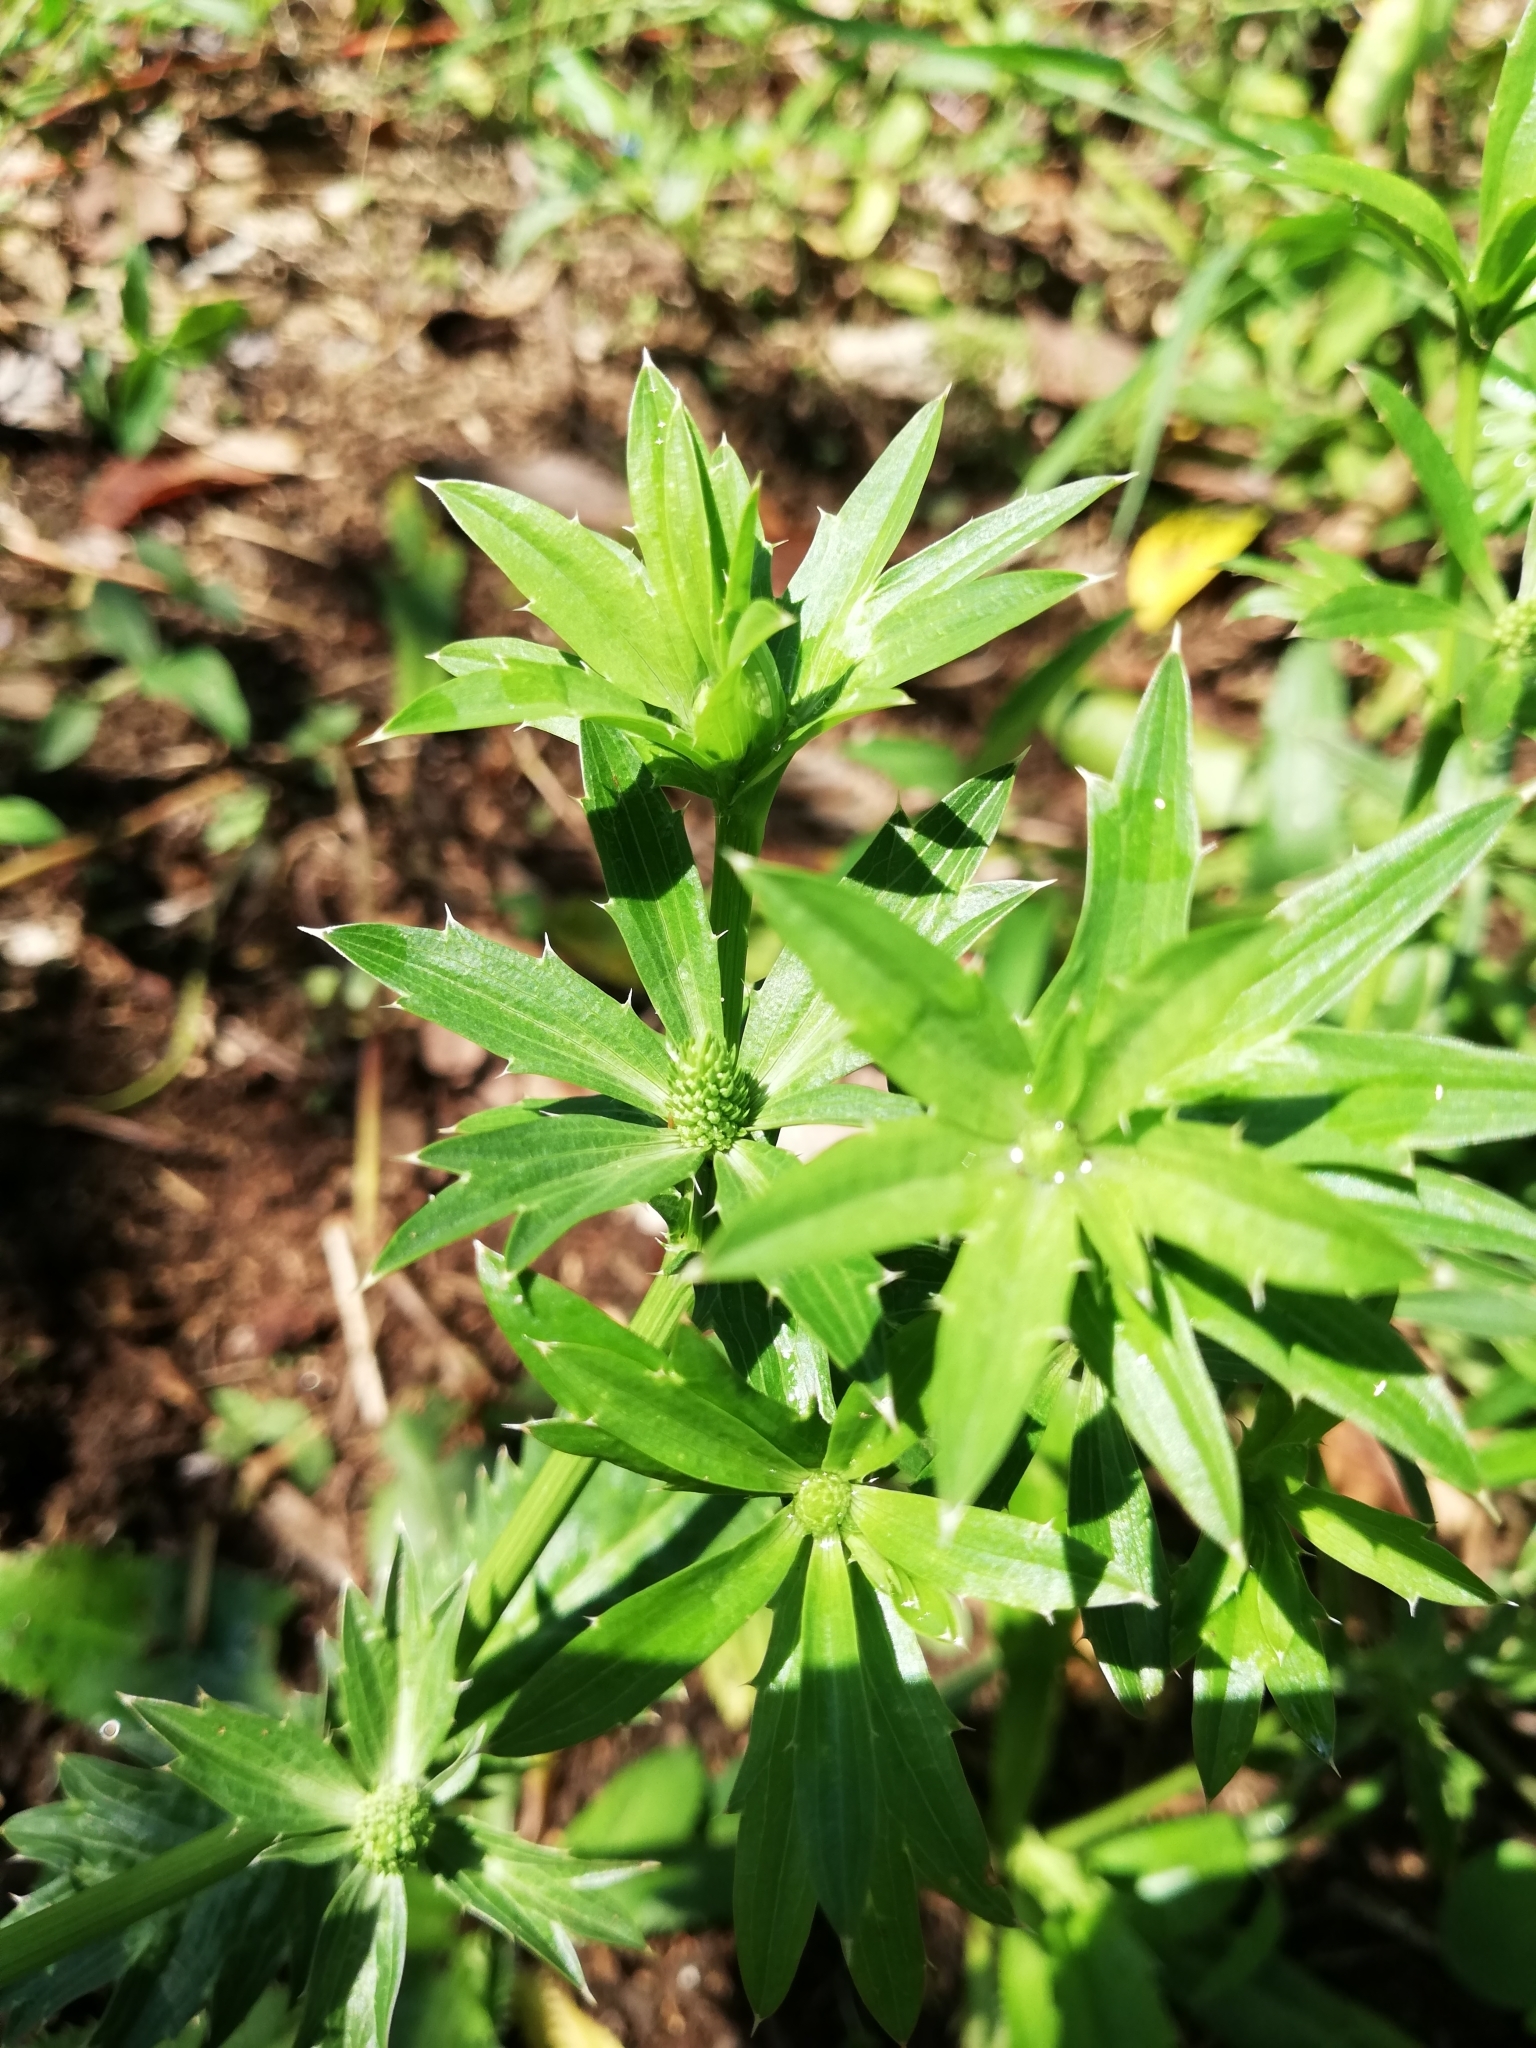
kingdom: Plantae
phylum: Tracheophyta
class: Magnoliopsida
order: Apiales
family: Apiaceae
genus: Eryngium
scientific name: Eryngium foetidum
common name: Fitweed
